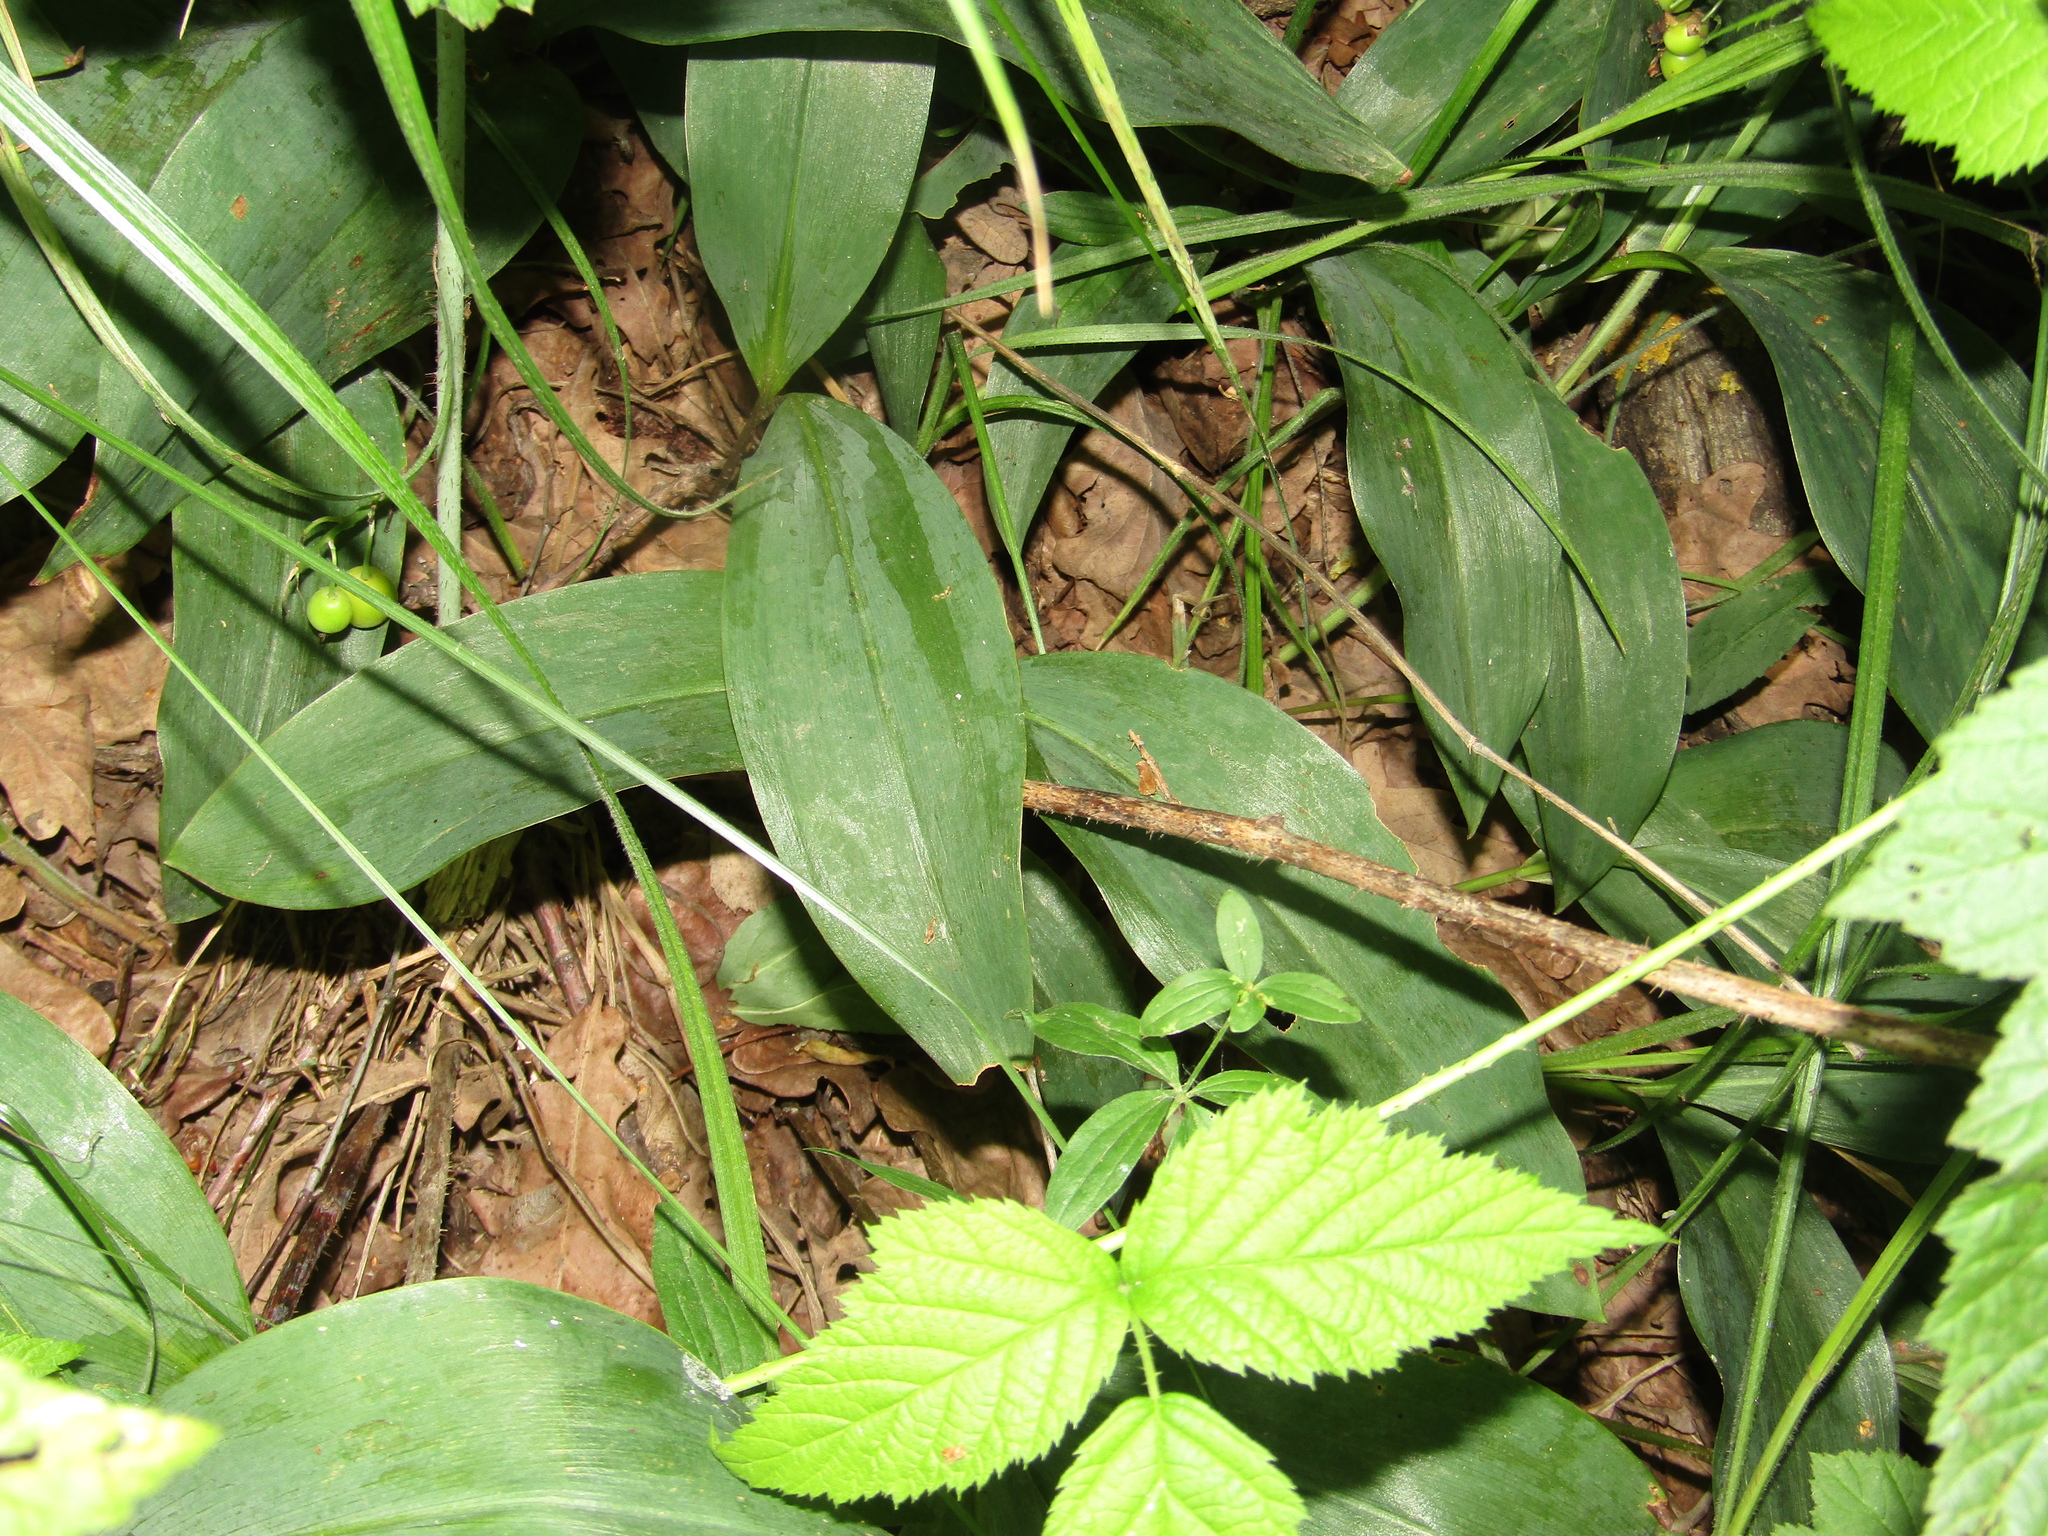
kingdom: Plantae
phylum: Tracheophyta
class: Liliopsida
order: Asparagales
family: Asparagaceae
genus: Convallaria
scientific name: Convallaria majalis
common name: Lily-of-the-valley
